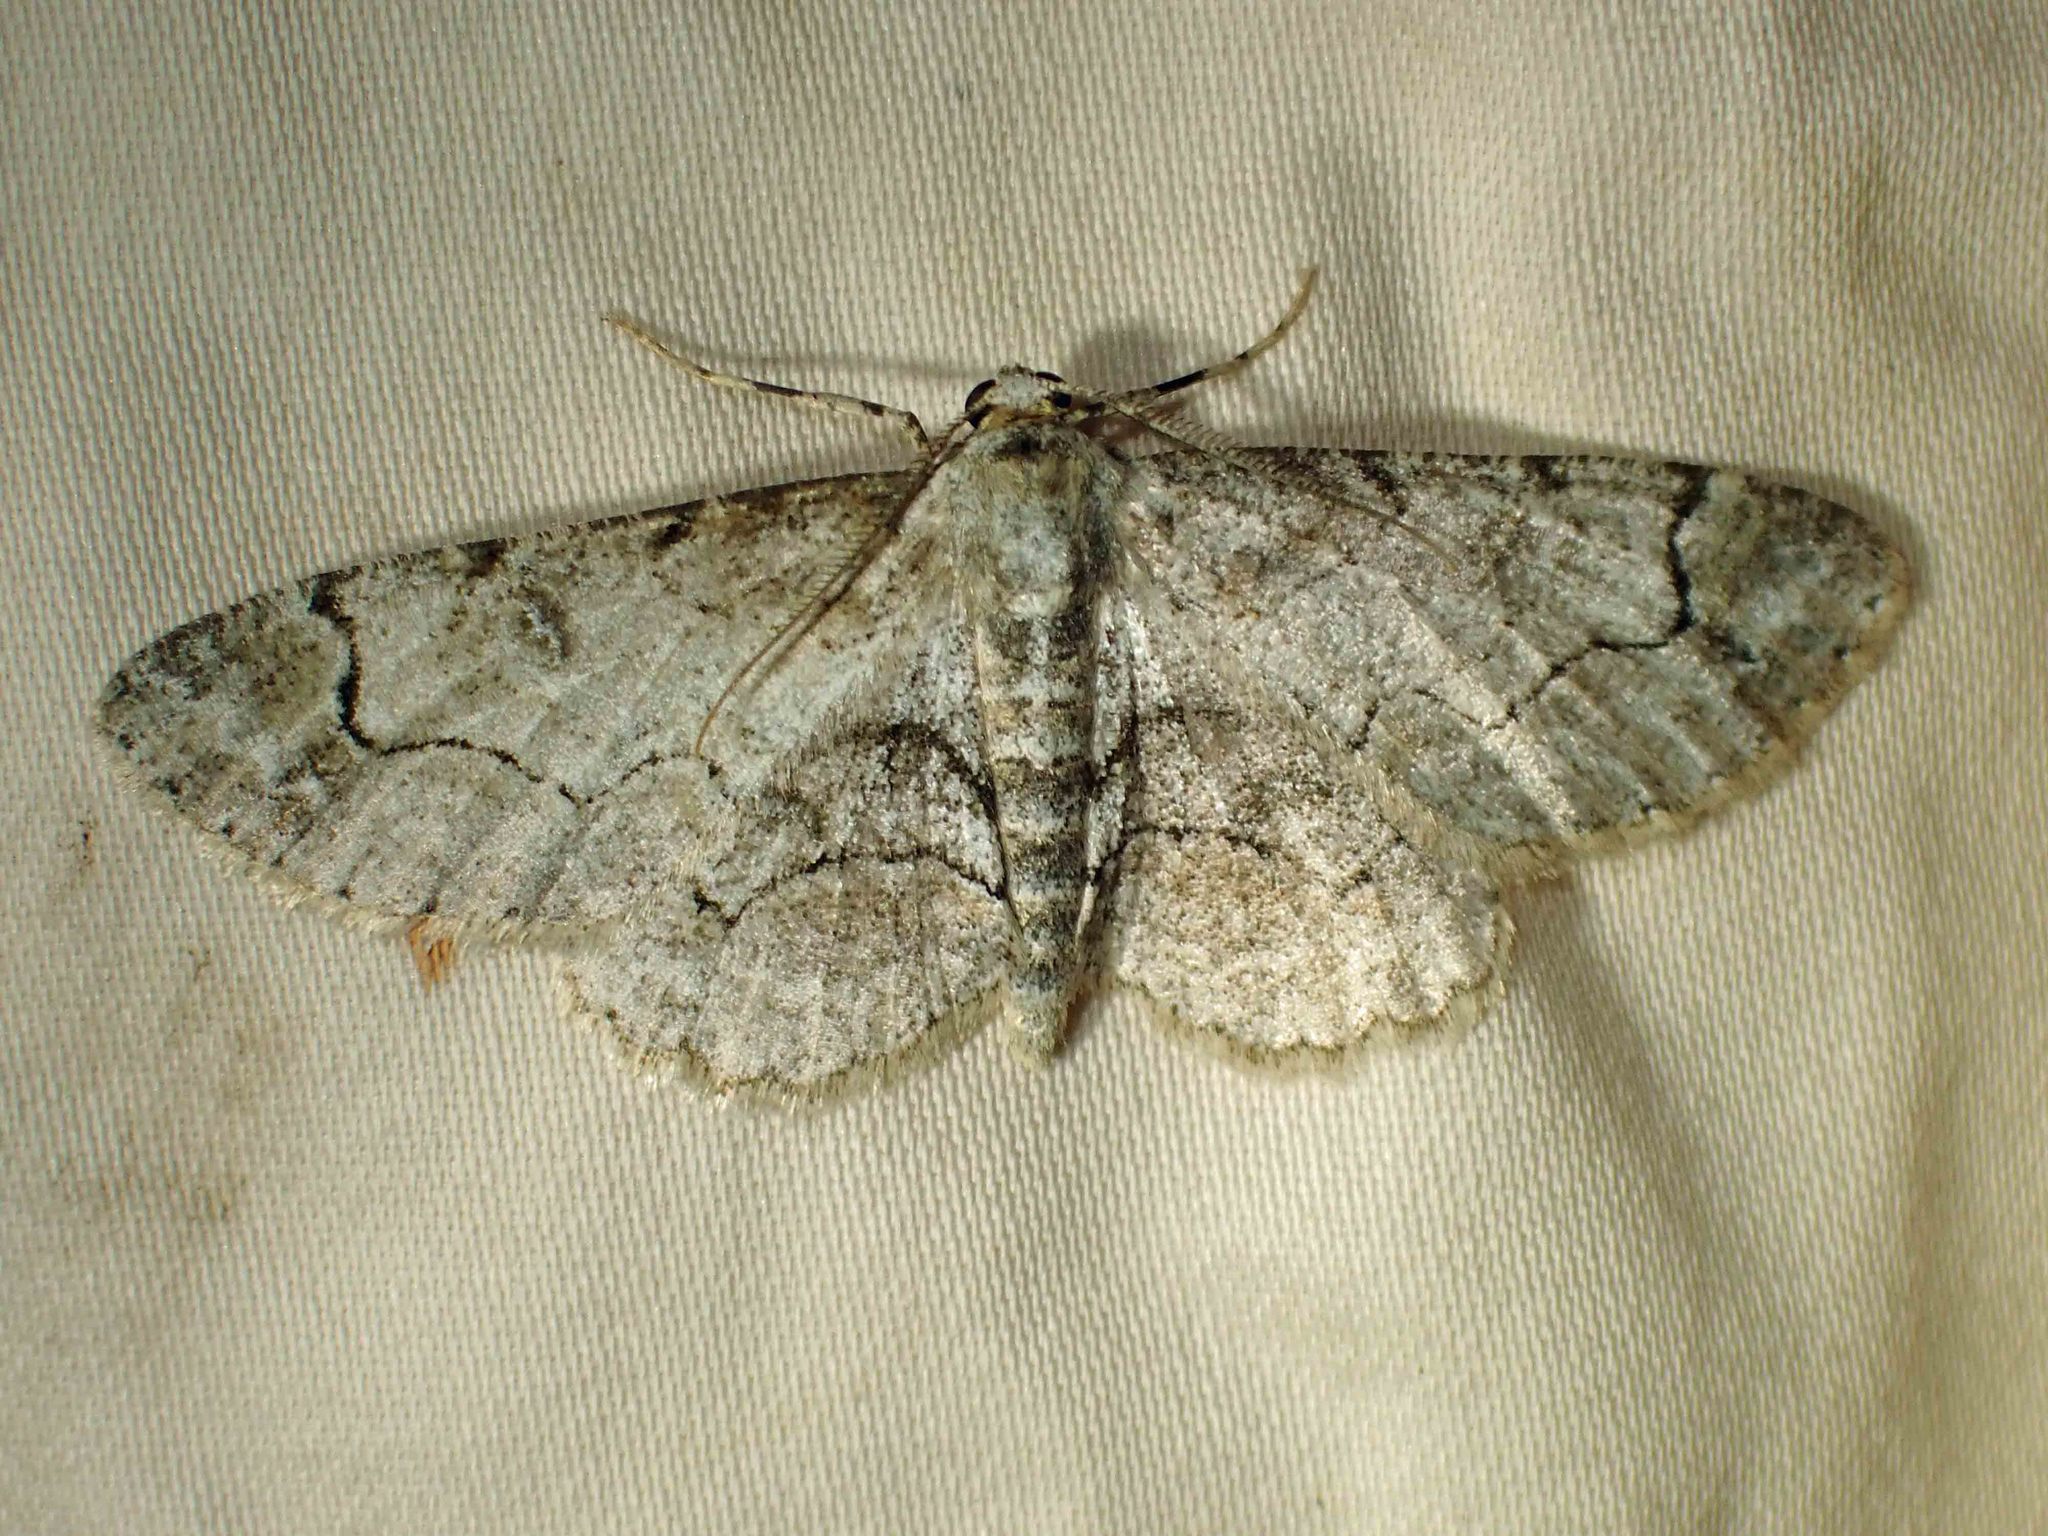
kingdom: Animalia
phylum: Arthropoda
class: Insecta
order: Lepidoptera
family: Geometridae
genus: Iridopsis
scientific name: Iridopsis larvaria
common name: Bent-line gray
